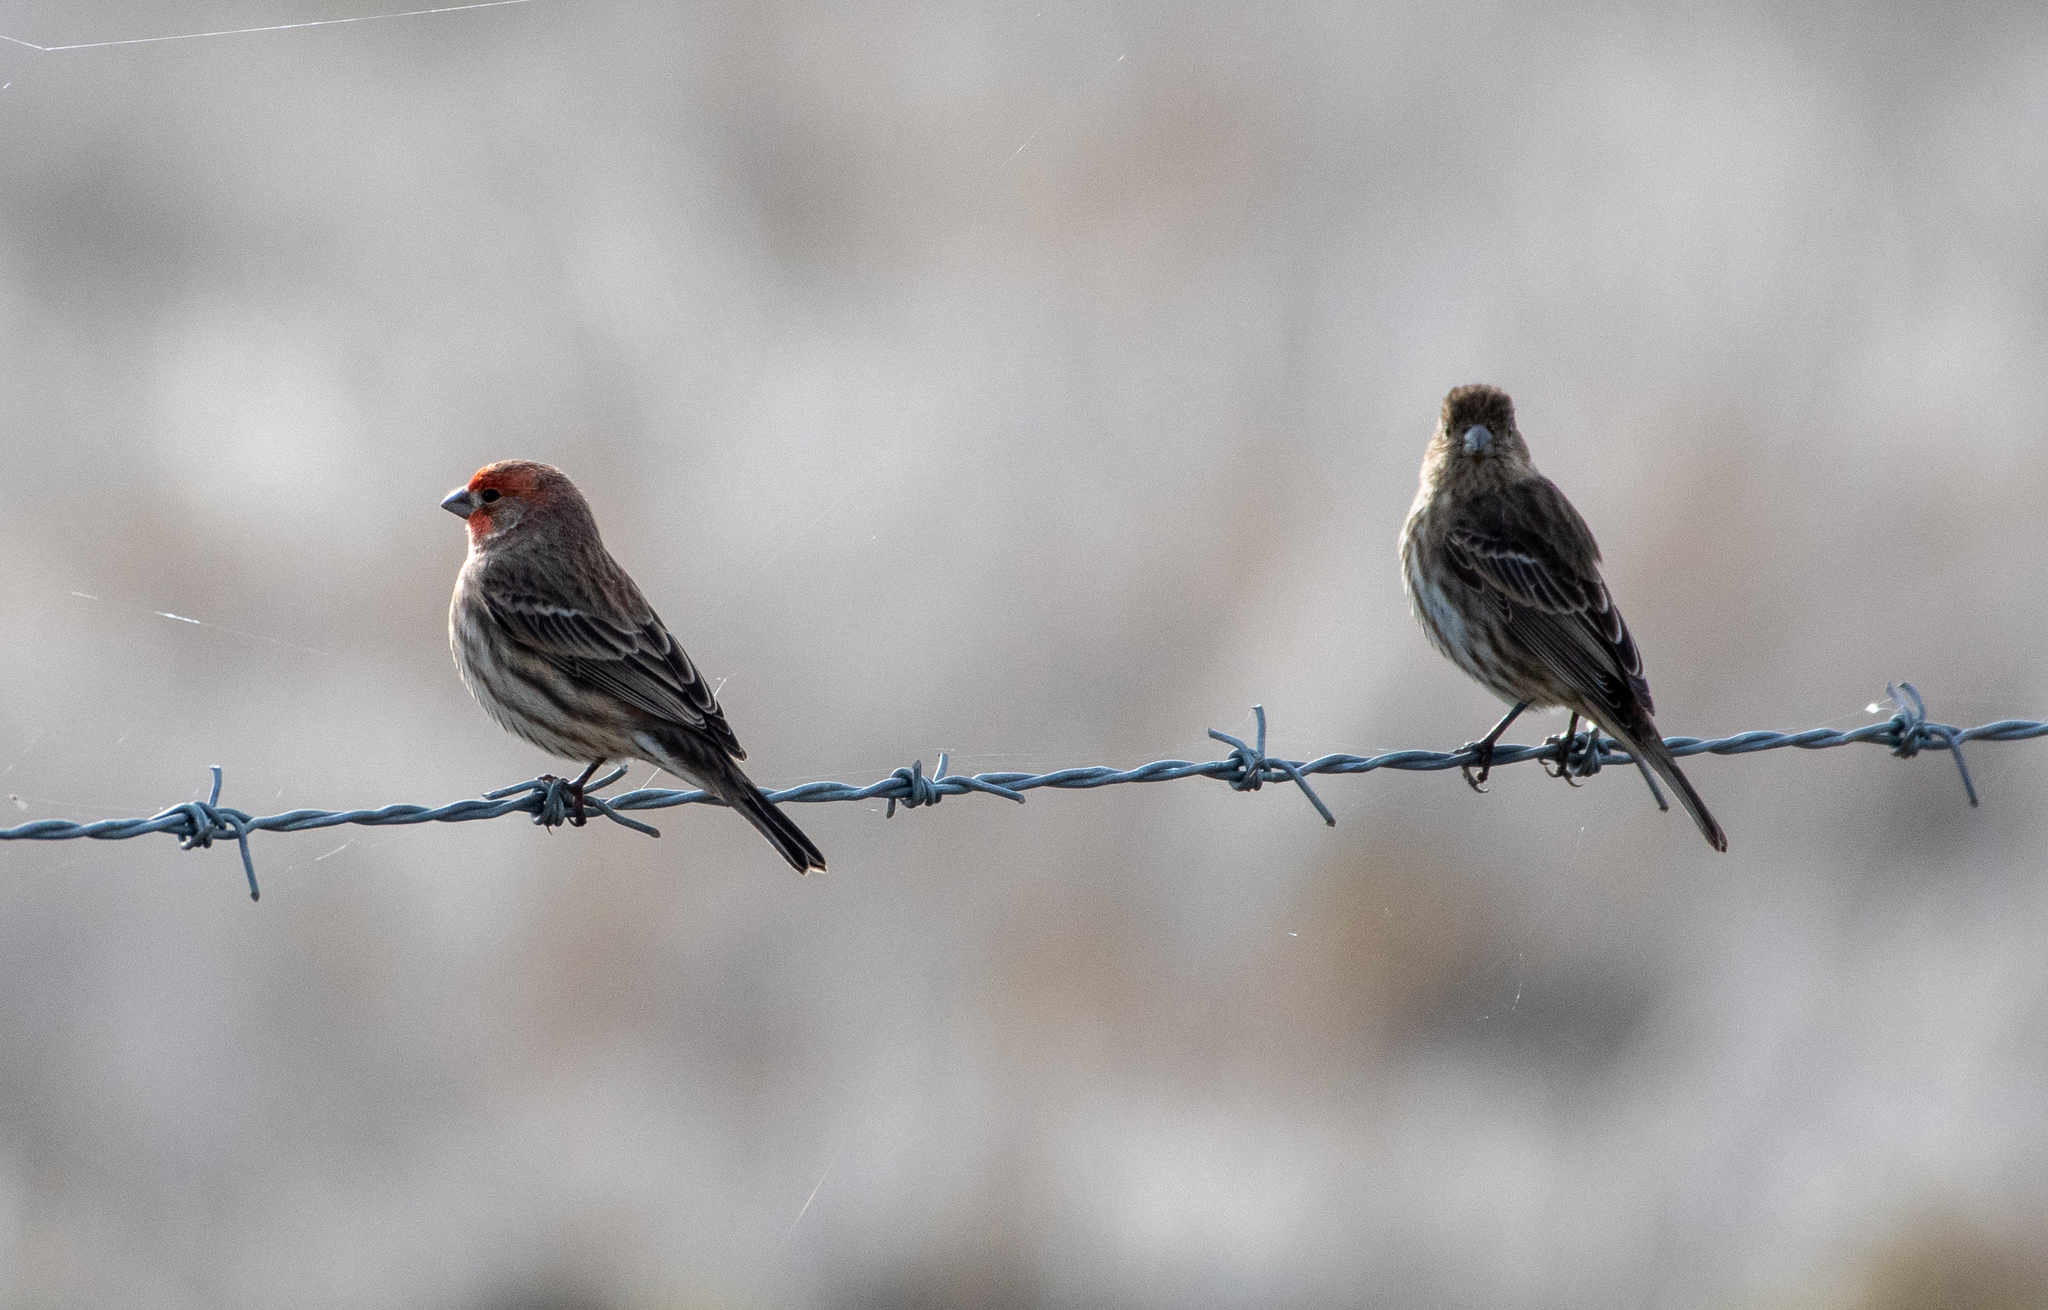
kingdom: Animalia
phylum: Chordata
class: Aves
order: Passeriformes
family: Fringillidae
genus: Haemorhous
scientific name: Haemorhous mexicanus
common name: House finch
